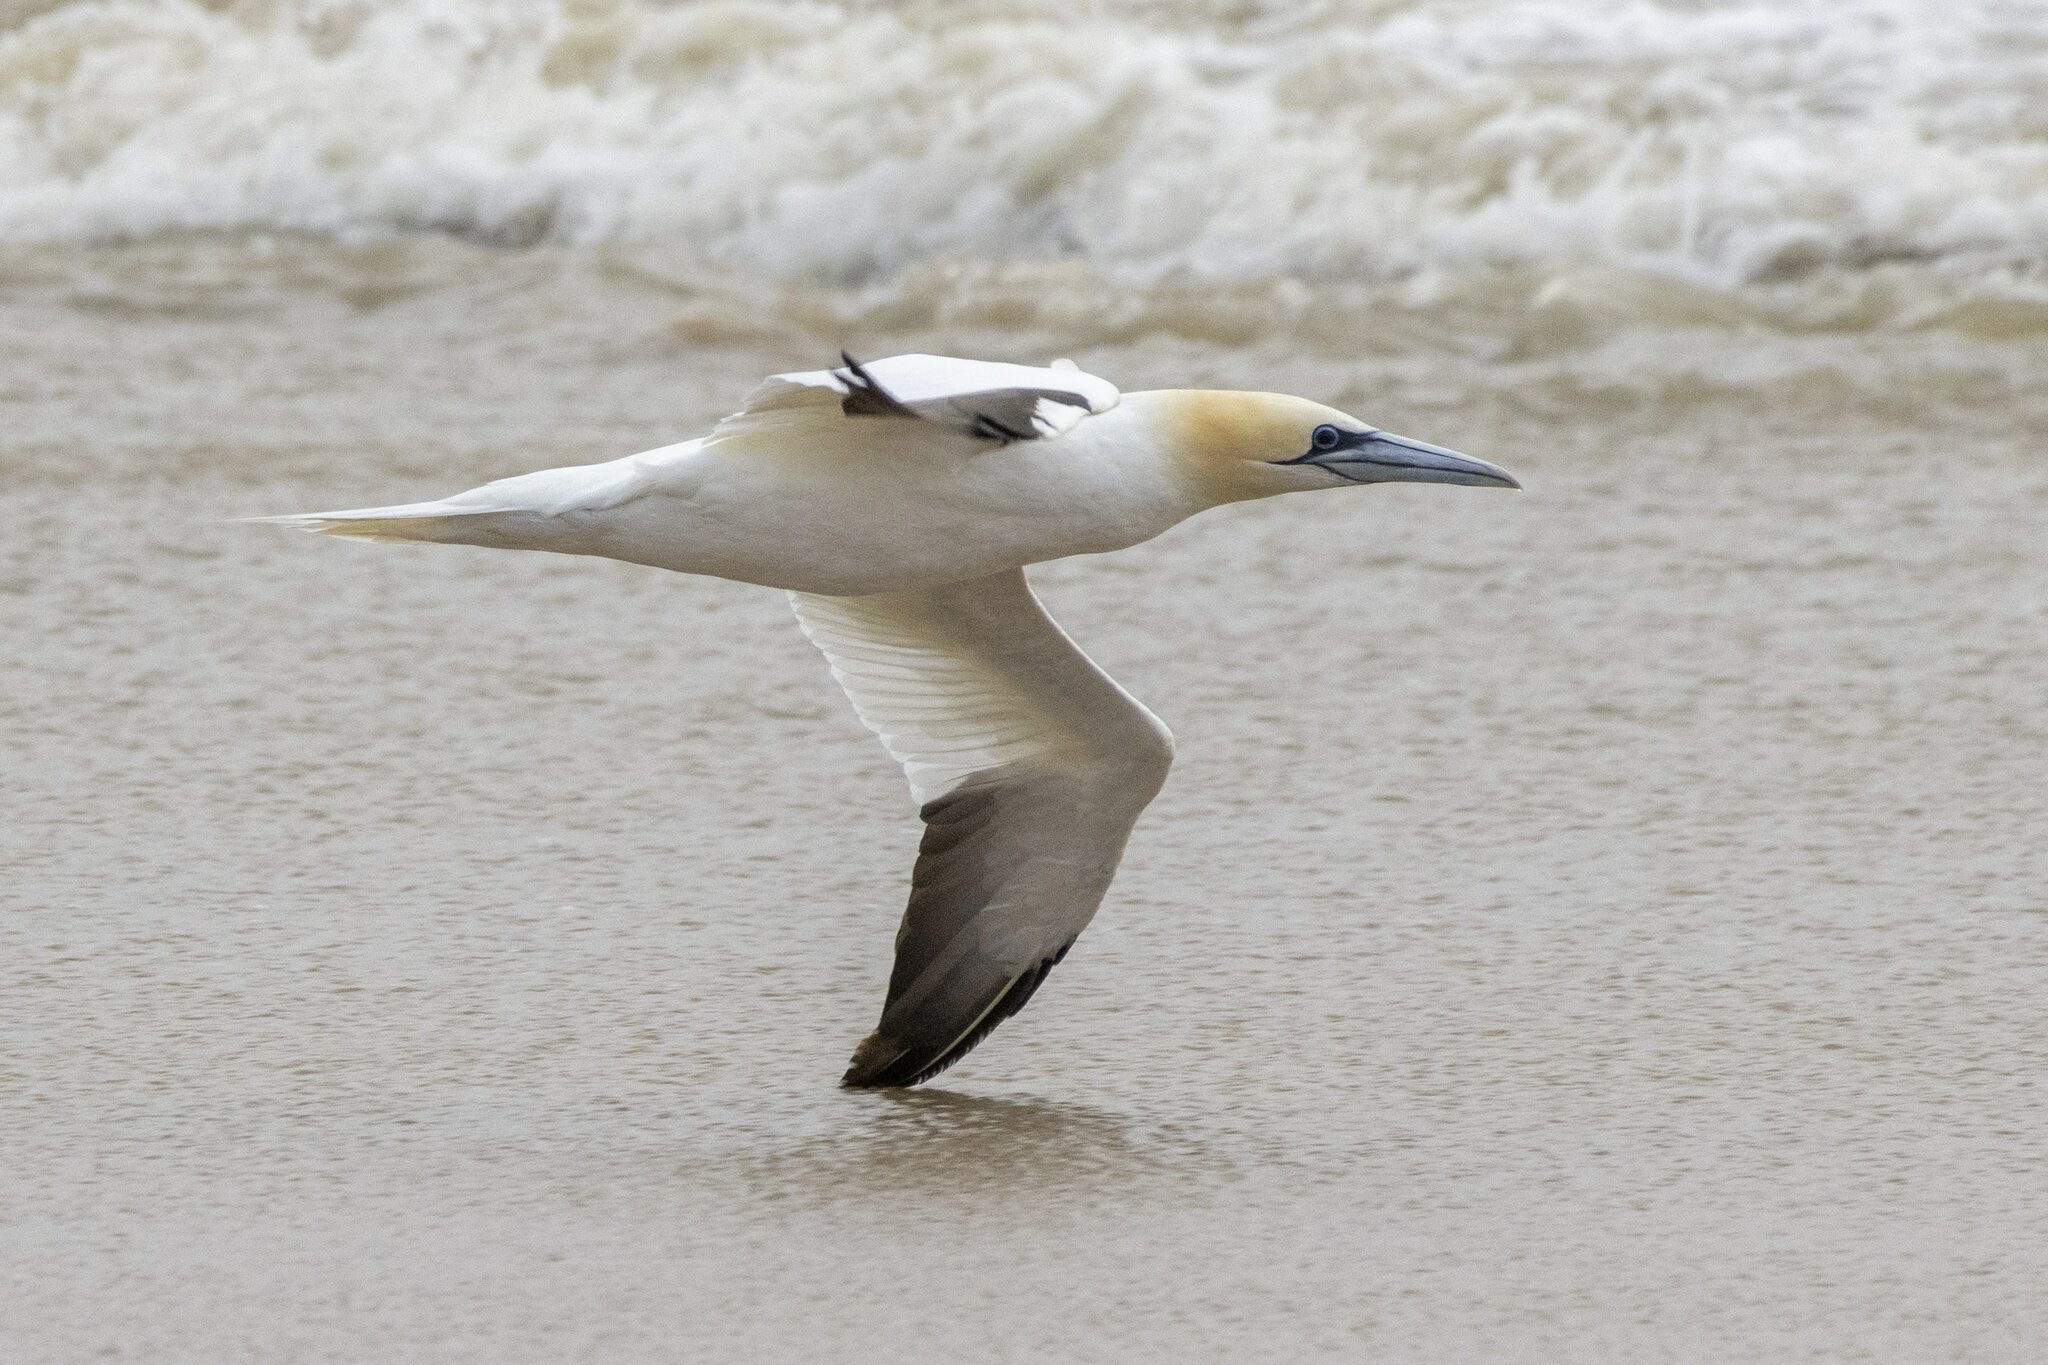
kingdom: Animalia
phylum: Chordata
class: Aves
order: Suliformes
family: Sulidae
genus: Morus
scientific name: Morus bassanus
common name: Northern gannet
